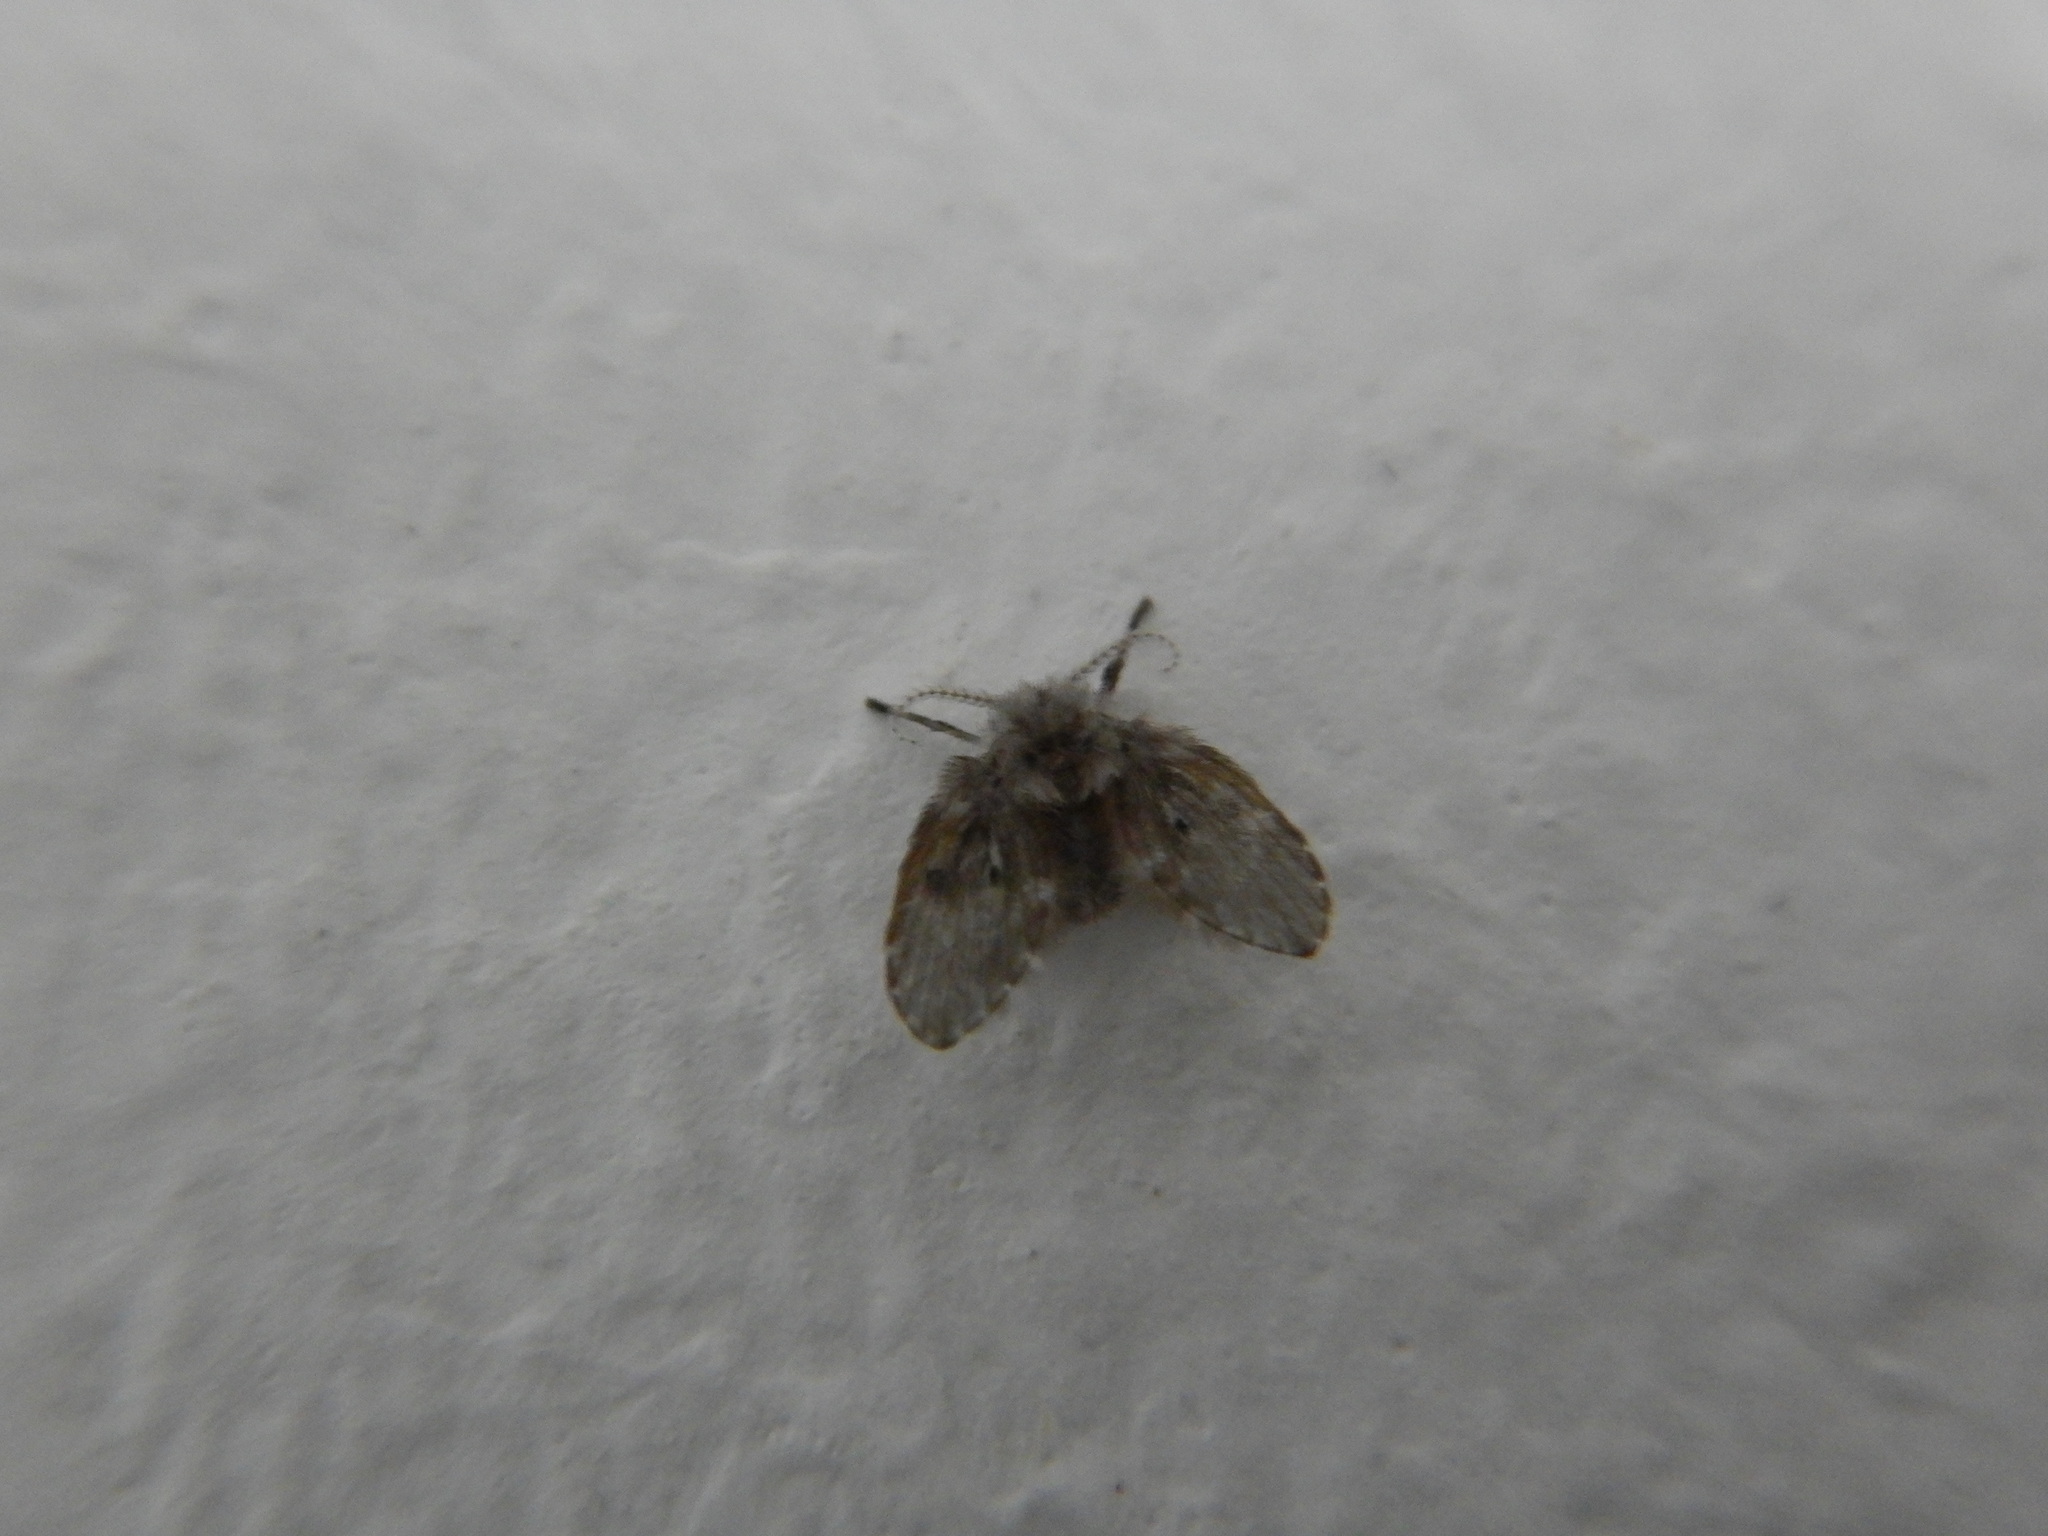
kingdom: Animalia
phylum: Arthropoda
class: Insecta
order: Diptera
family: Psychodidae
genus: Clogmia
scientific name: Clogmia albipunctatus
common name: White-spotted moth fly
